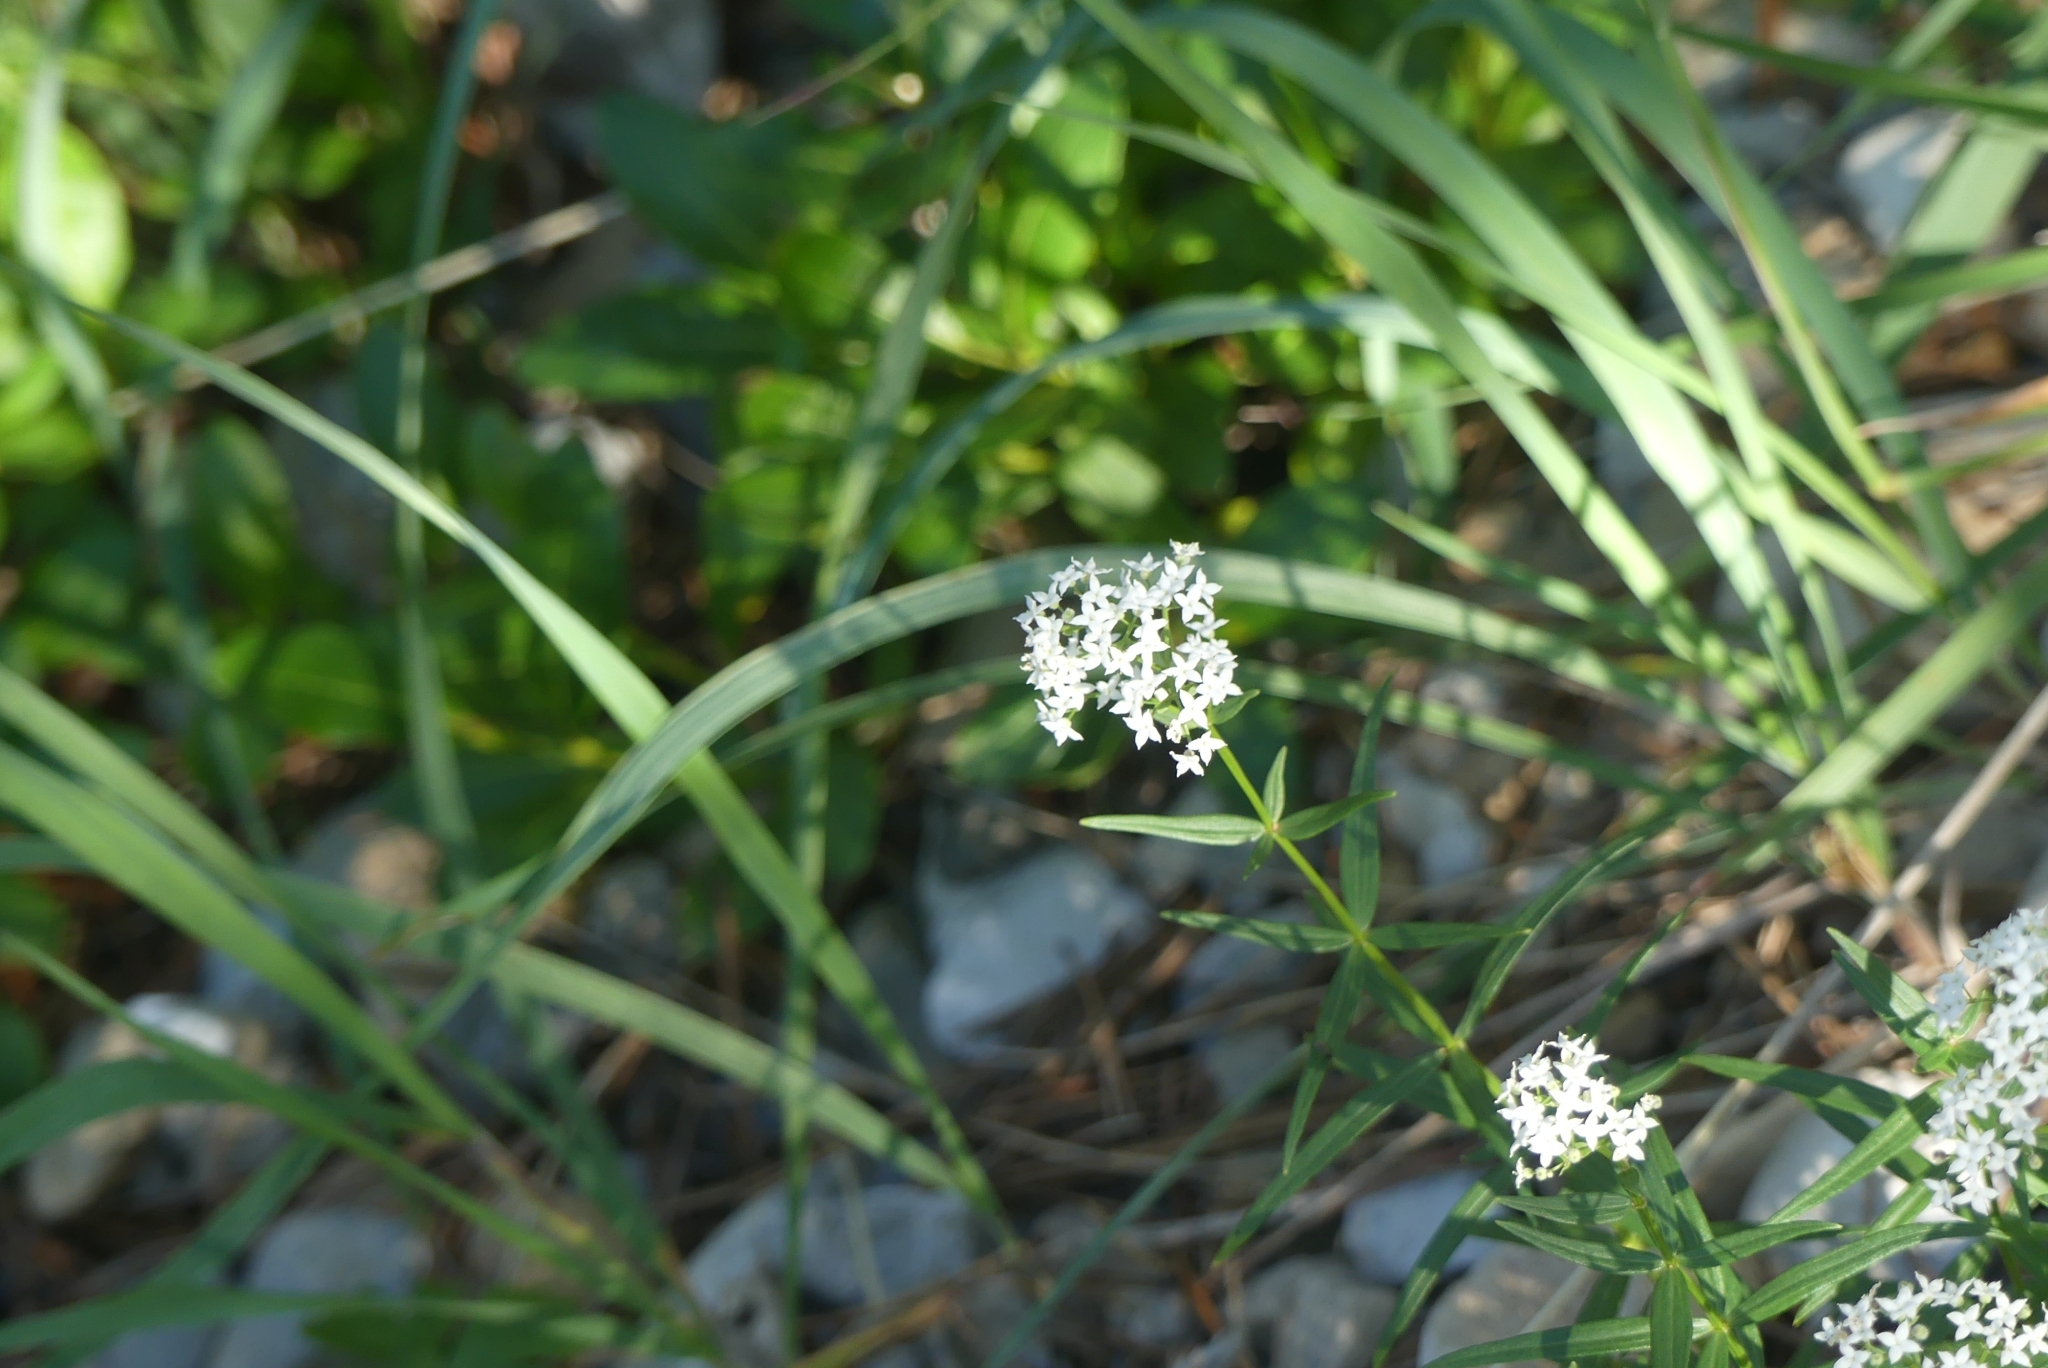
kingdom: Plantae
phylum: Tracheophyta
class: Magnoliopsida
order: Gentianales
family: Rubiaceae
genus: Galium
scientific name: Galium boreale
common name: Northern bedstraw
